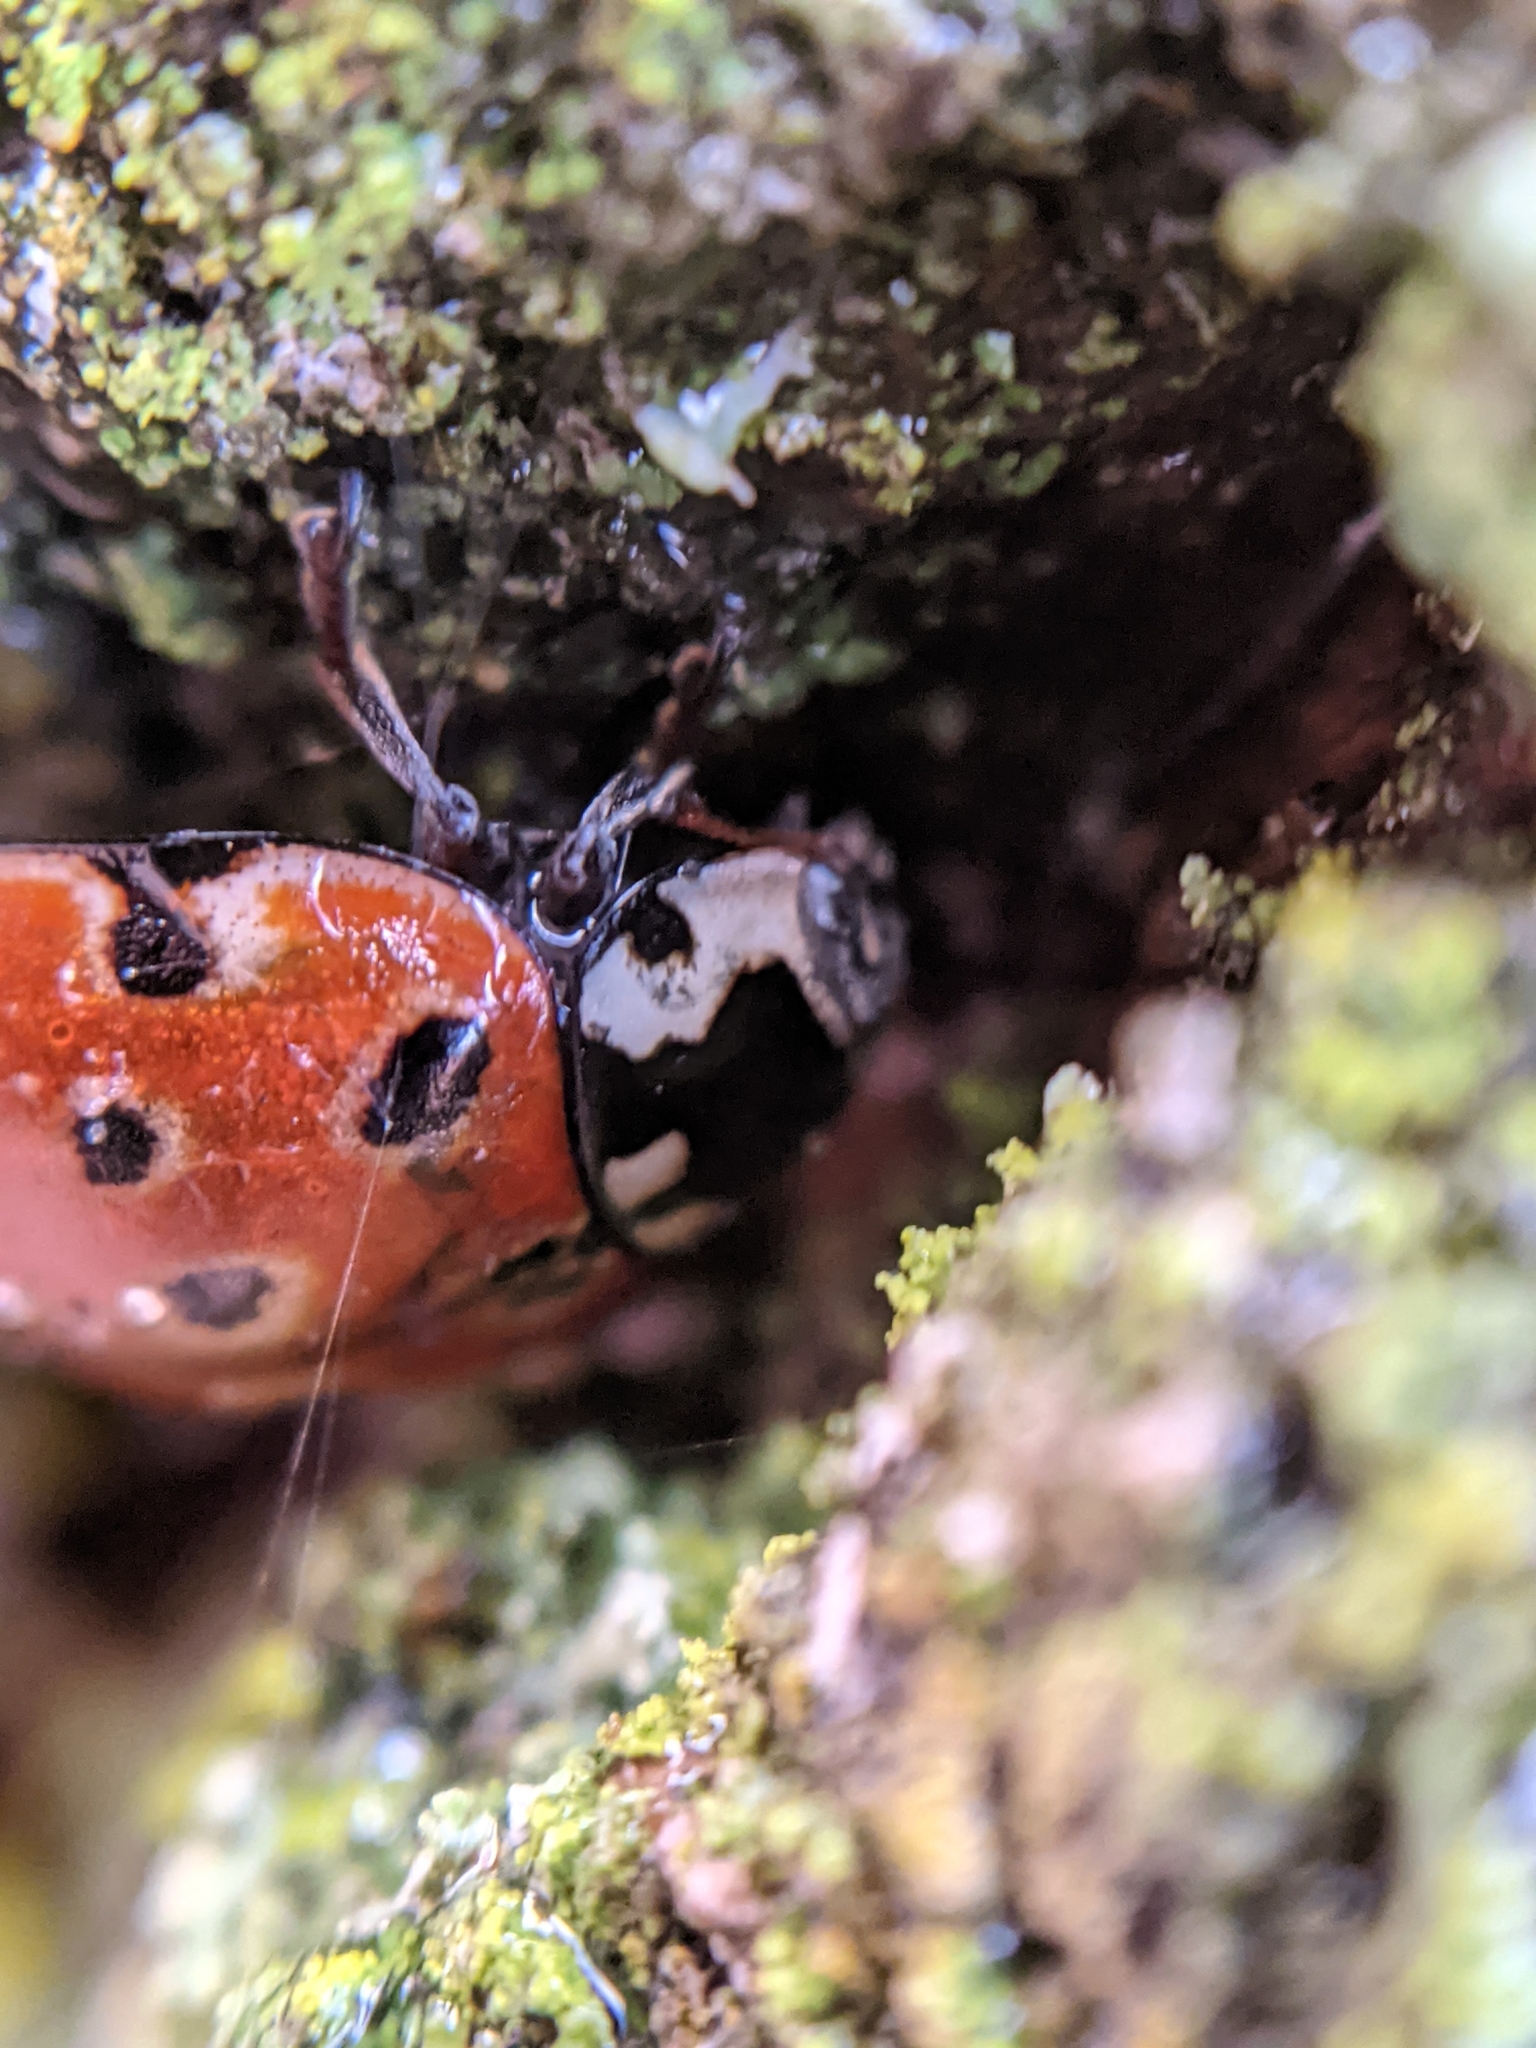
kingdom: Animalia
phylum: Arthropoda
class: Insecta
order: Coleoptera
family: Coccinellidae
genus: Anatis
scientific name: Anatis ocellata
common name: Eyed ladybird
